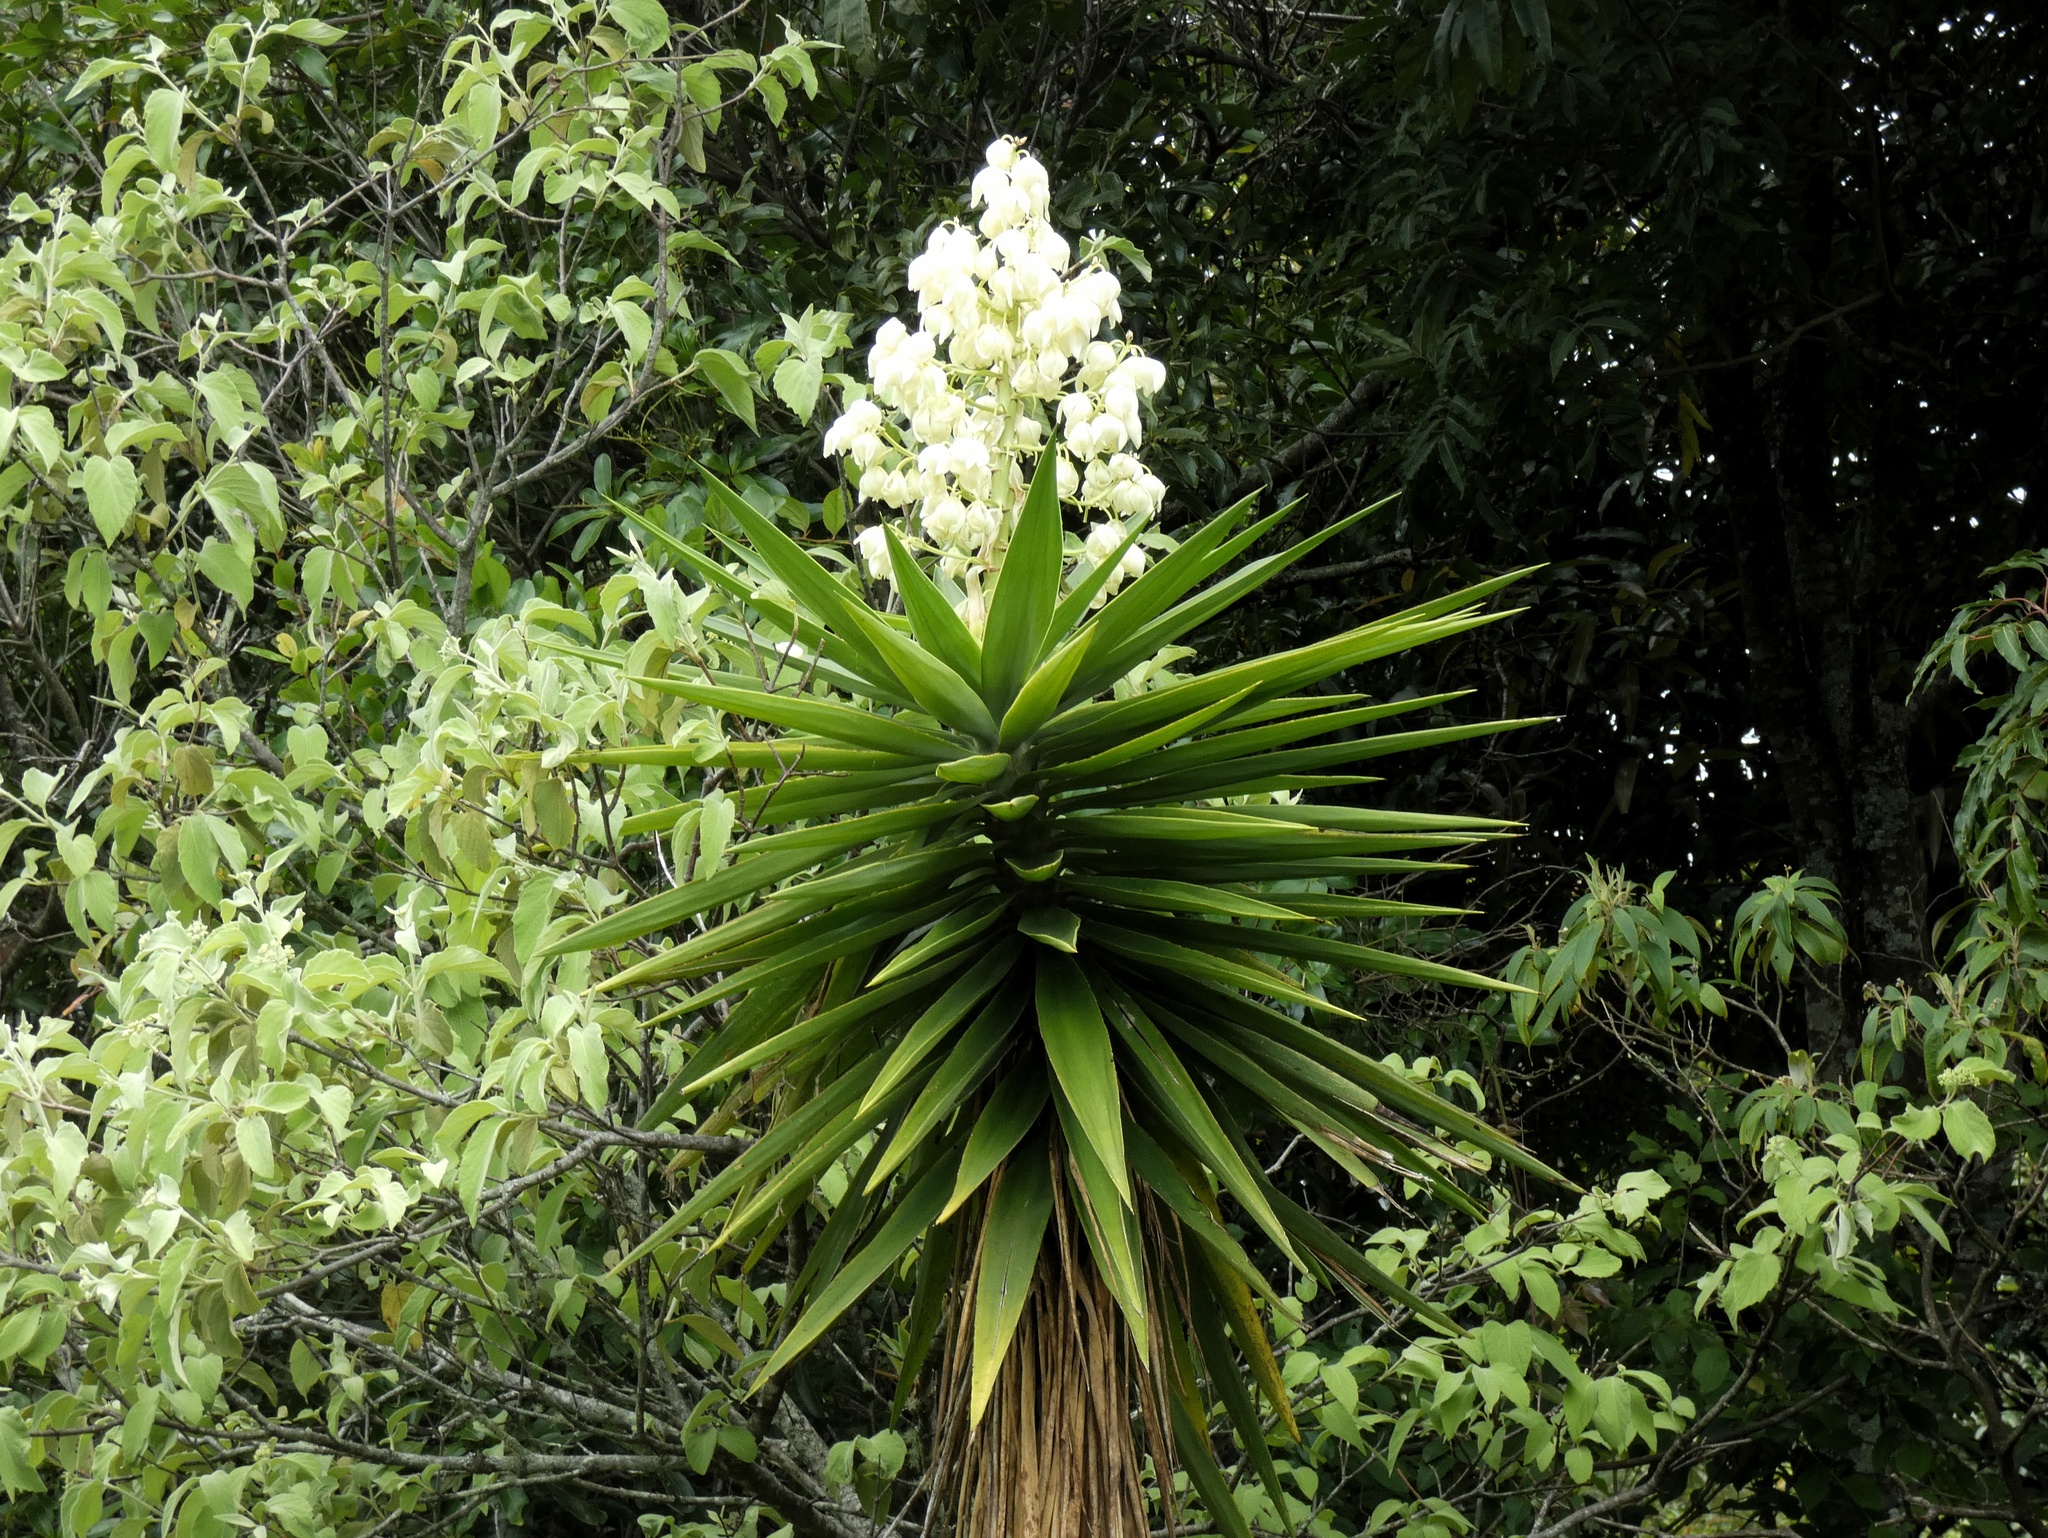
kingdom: Plantae
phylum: Tracheophyta
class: Liliopsida
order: Asparagales
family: Asparagaceae
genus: Yucca
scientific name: Yucca gigantea
